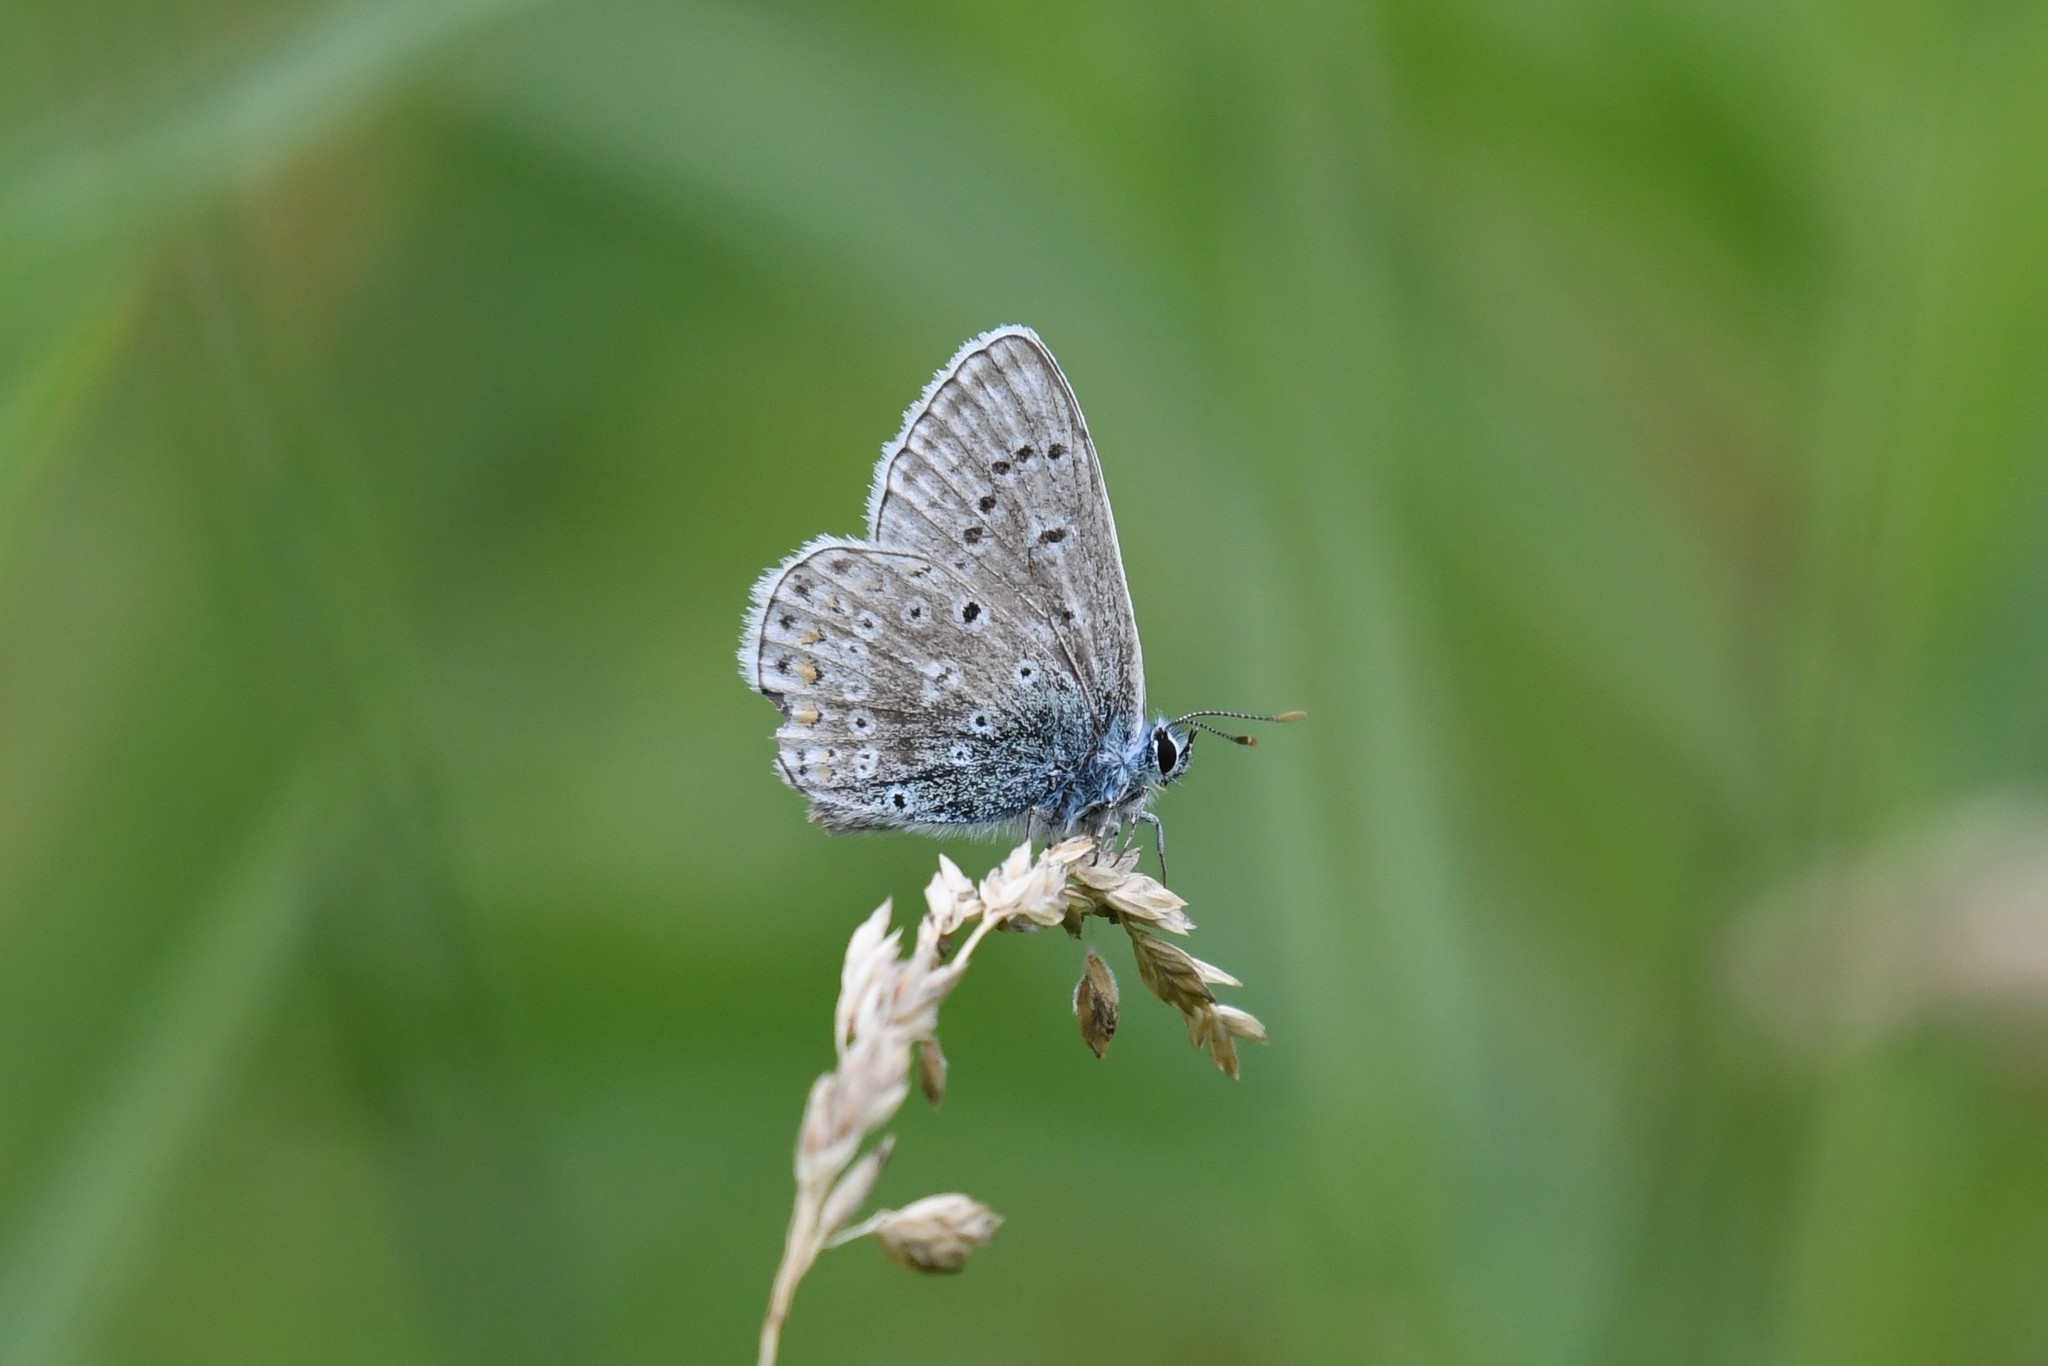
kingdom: Animalia
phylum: Arthropoda
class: Insecta
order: Lepidoptera
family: Lycaenidae
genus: Polyommatus
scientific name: Polyommatus icarus
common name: Common blue
